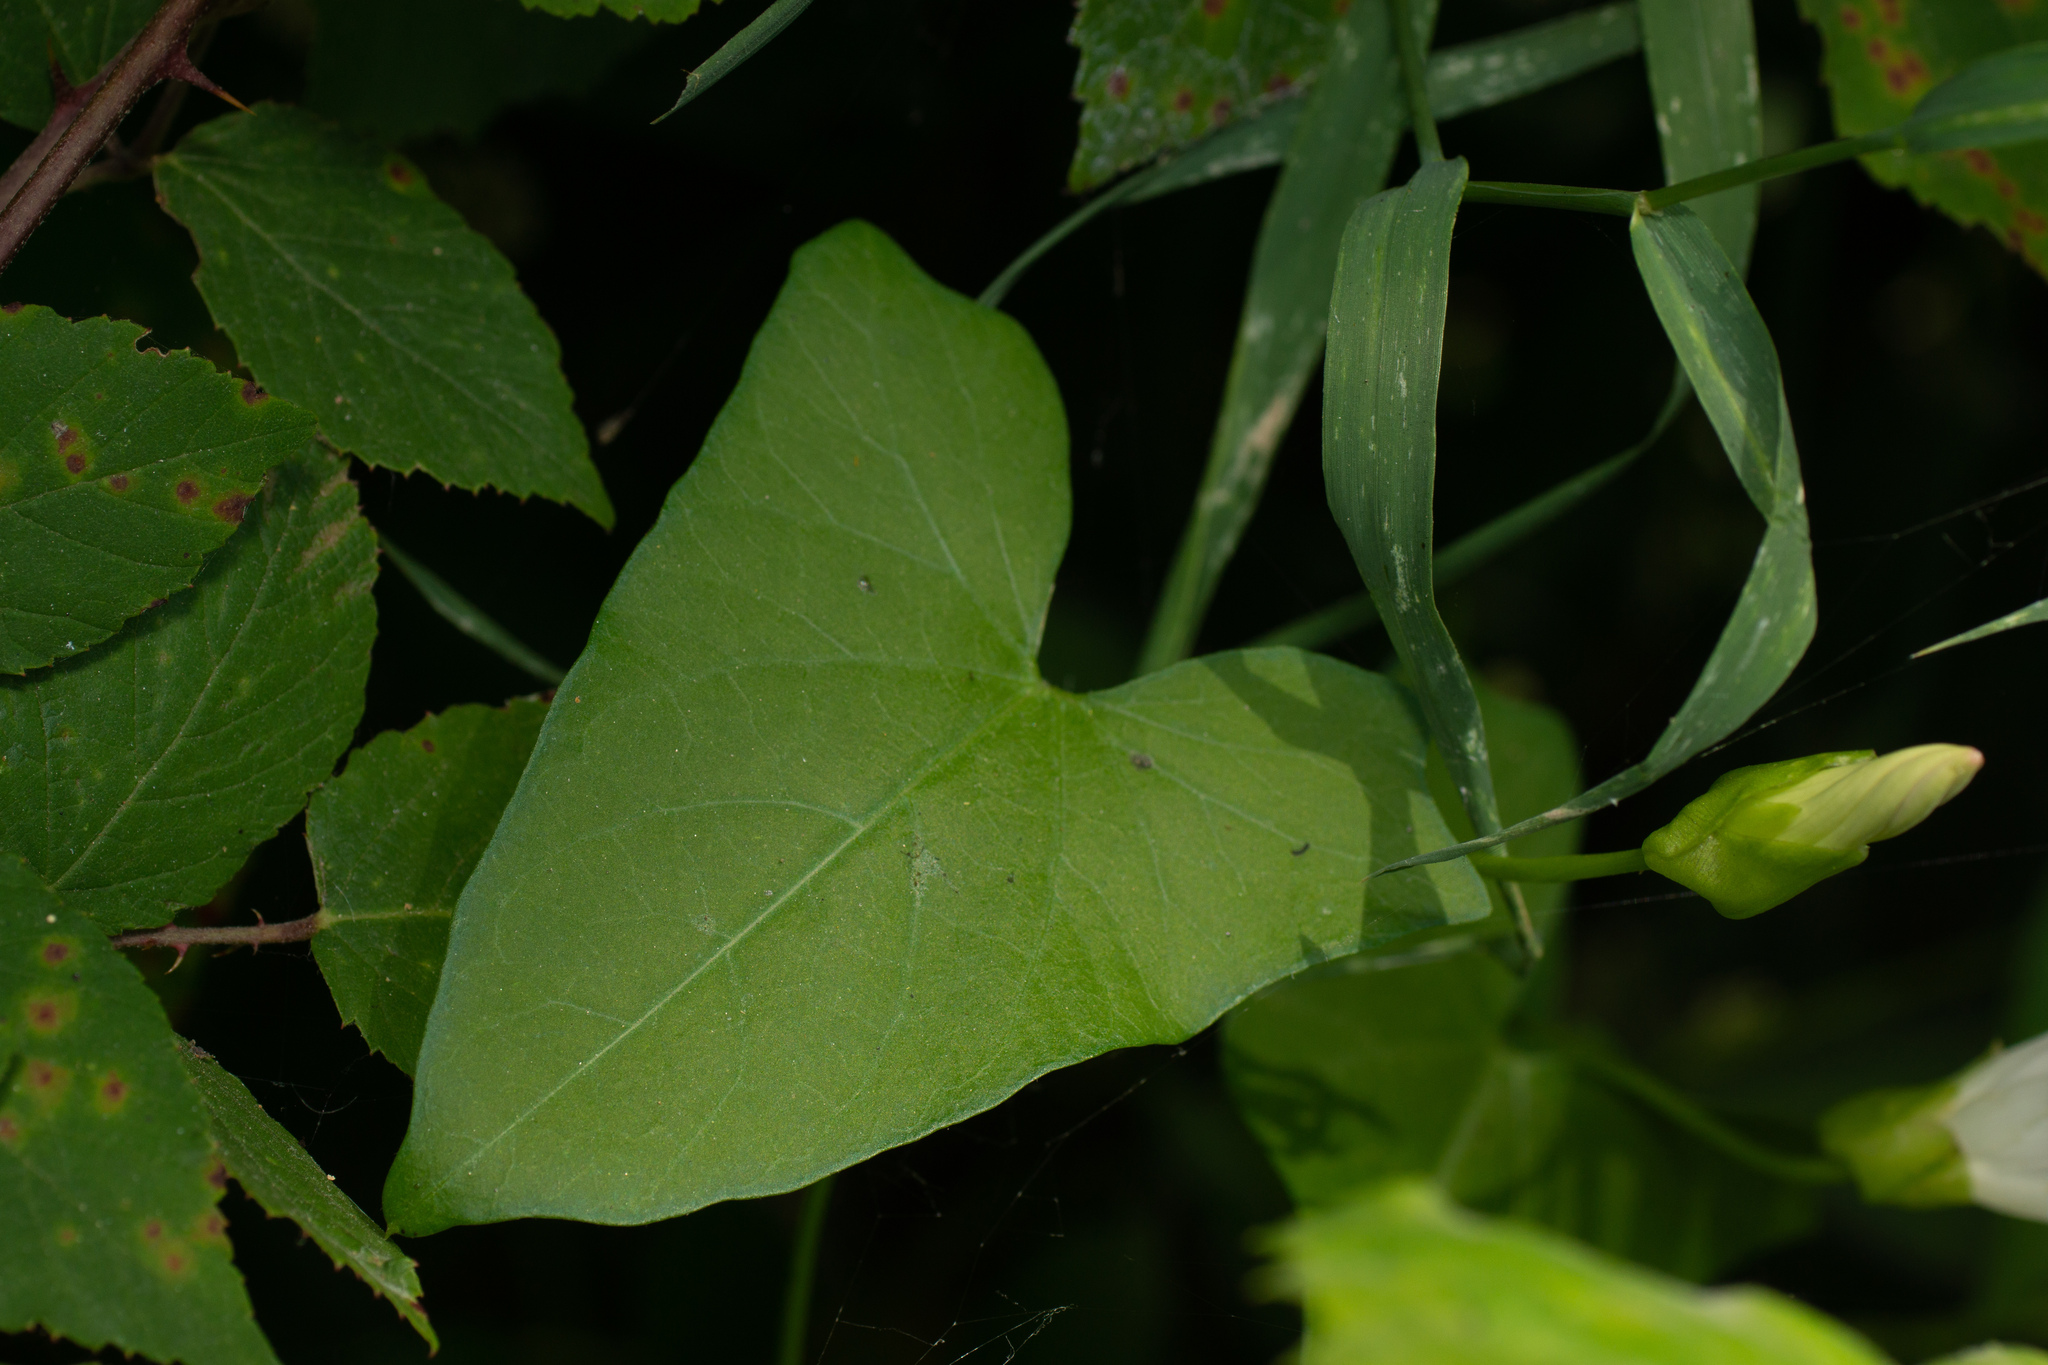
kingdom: Plantae
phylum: Tracheophyta
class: Magnoliopsida
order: Solanales
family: Convolvulaceae
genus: Calystegia
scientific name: Calystegia sepium
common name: Hedge bindweed
